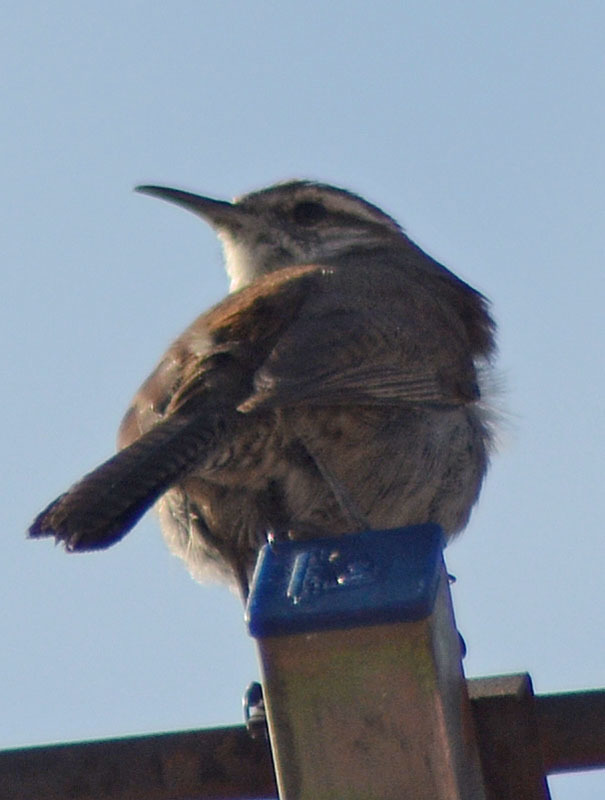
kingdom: Animalia
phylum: Chordata
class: Aves
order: Passeriformes
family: Troglodytidae
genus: Thryomanes
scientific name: Thryomanes bewickii
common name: Bewick's wren
